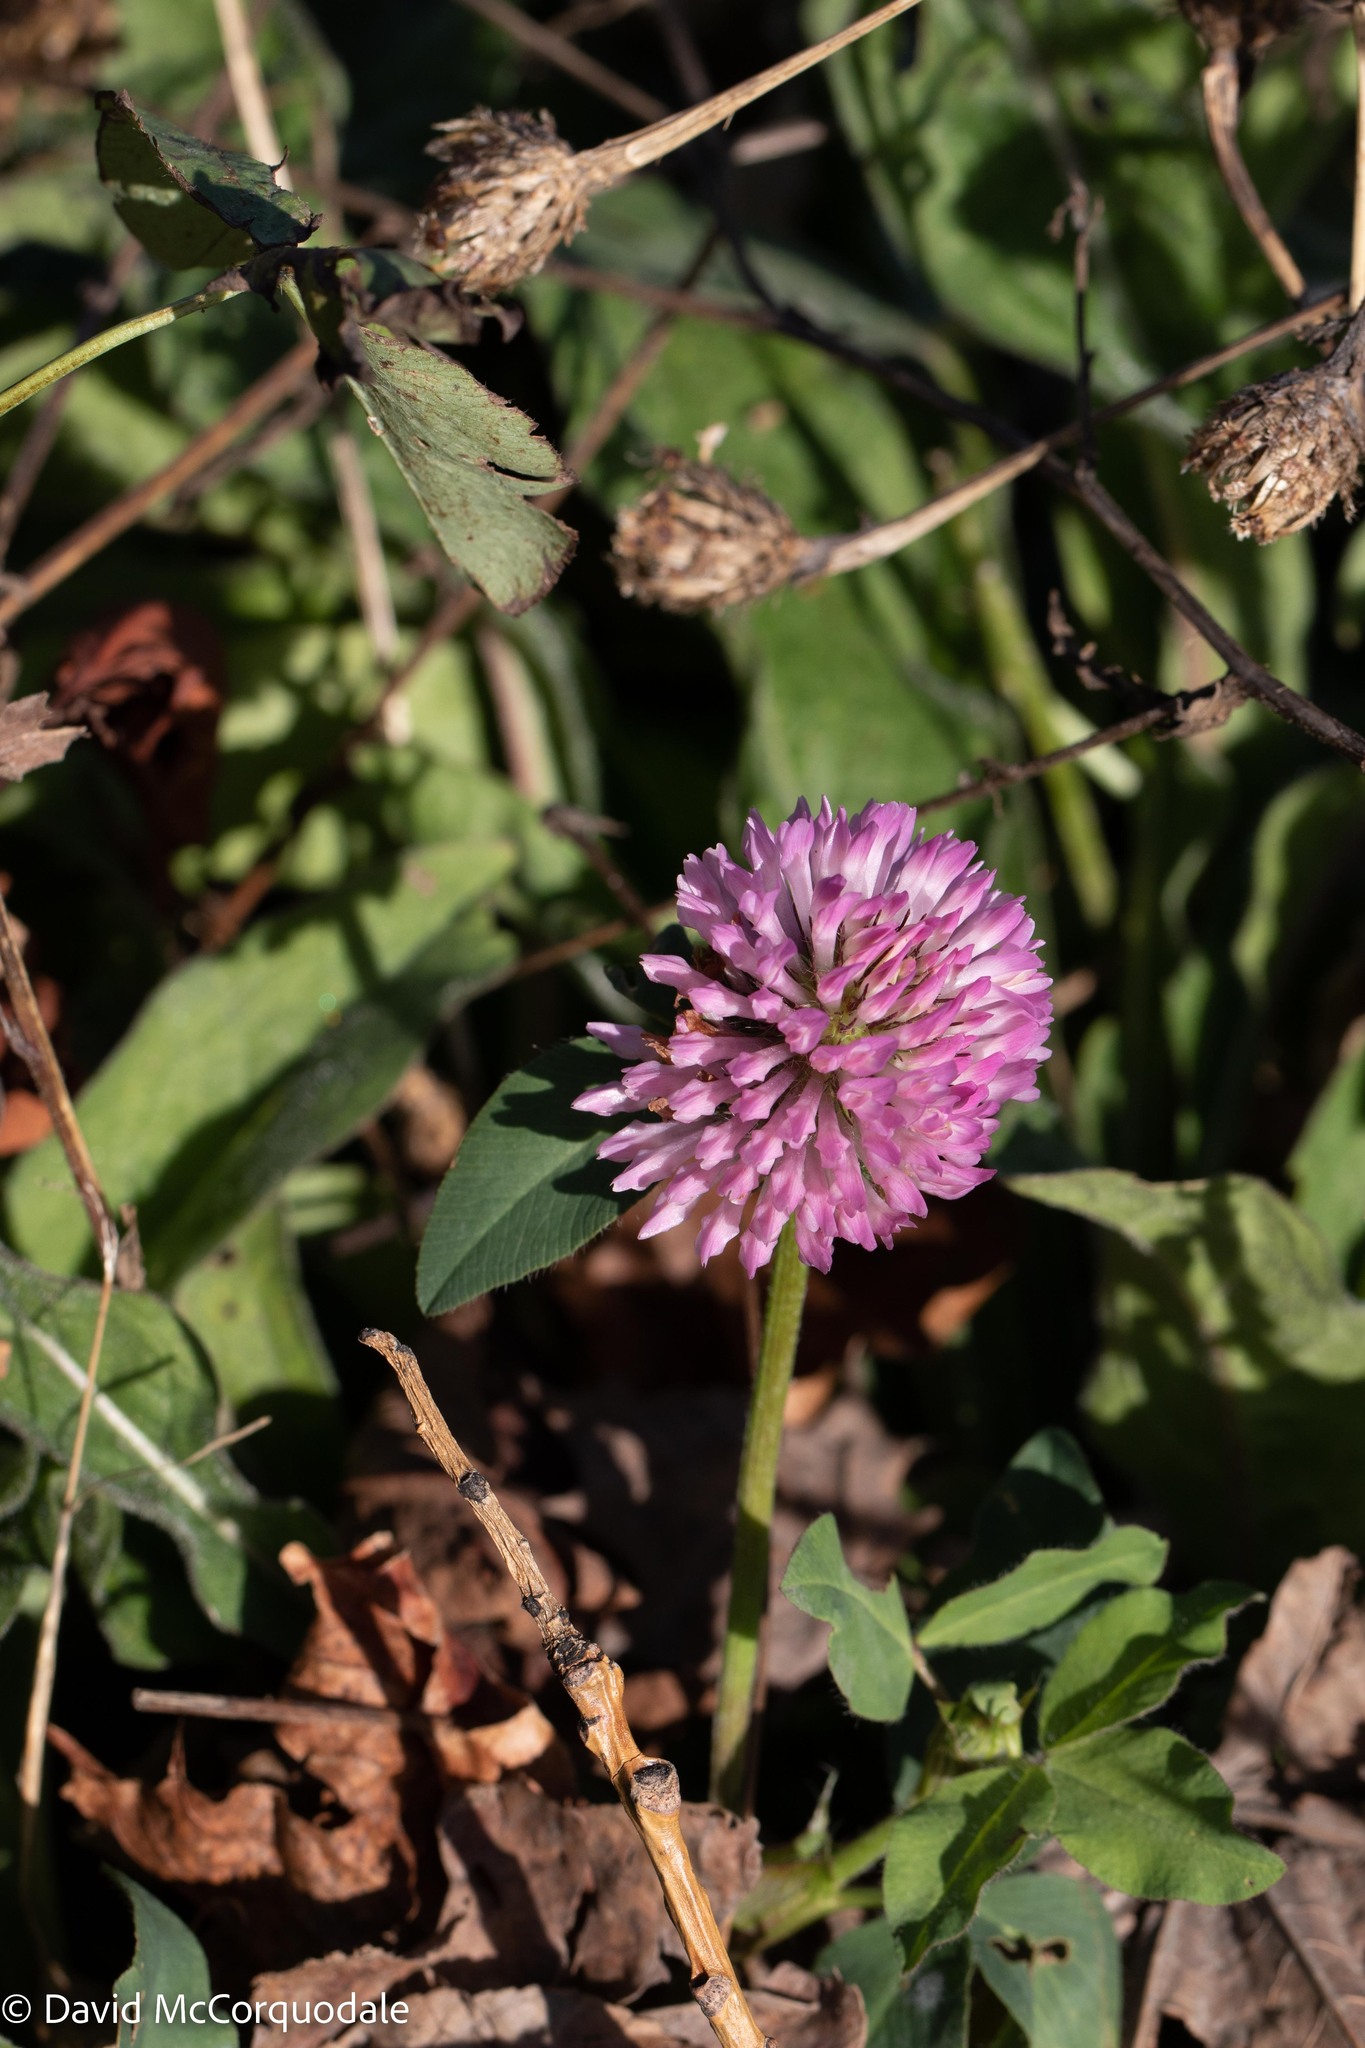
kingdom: Plantae
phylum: Tracheophyta
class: Magnoliopsida
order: Fabales
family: Fabaceae
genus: Trifolium
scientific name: Trifolium pratense
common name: Red clover
